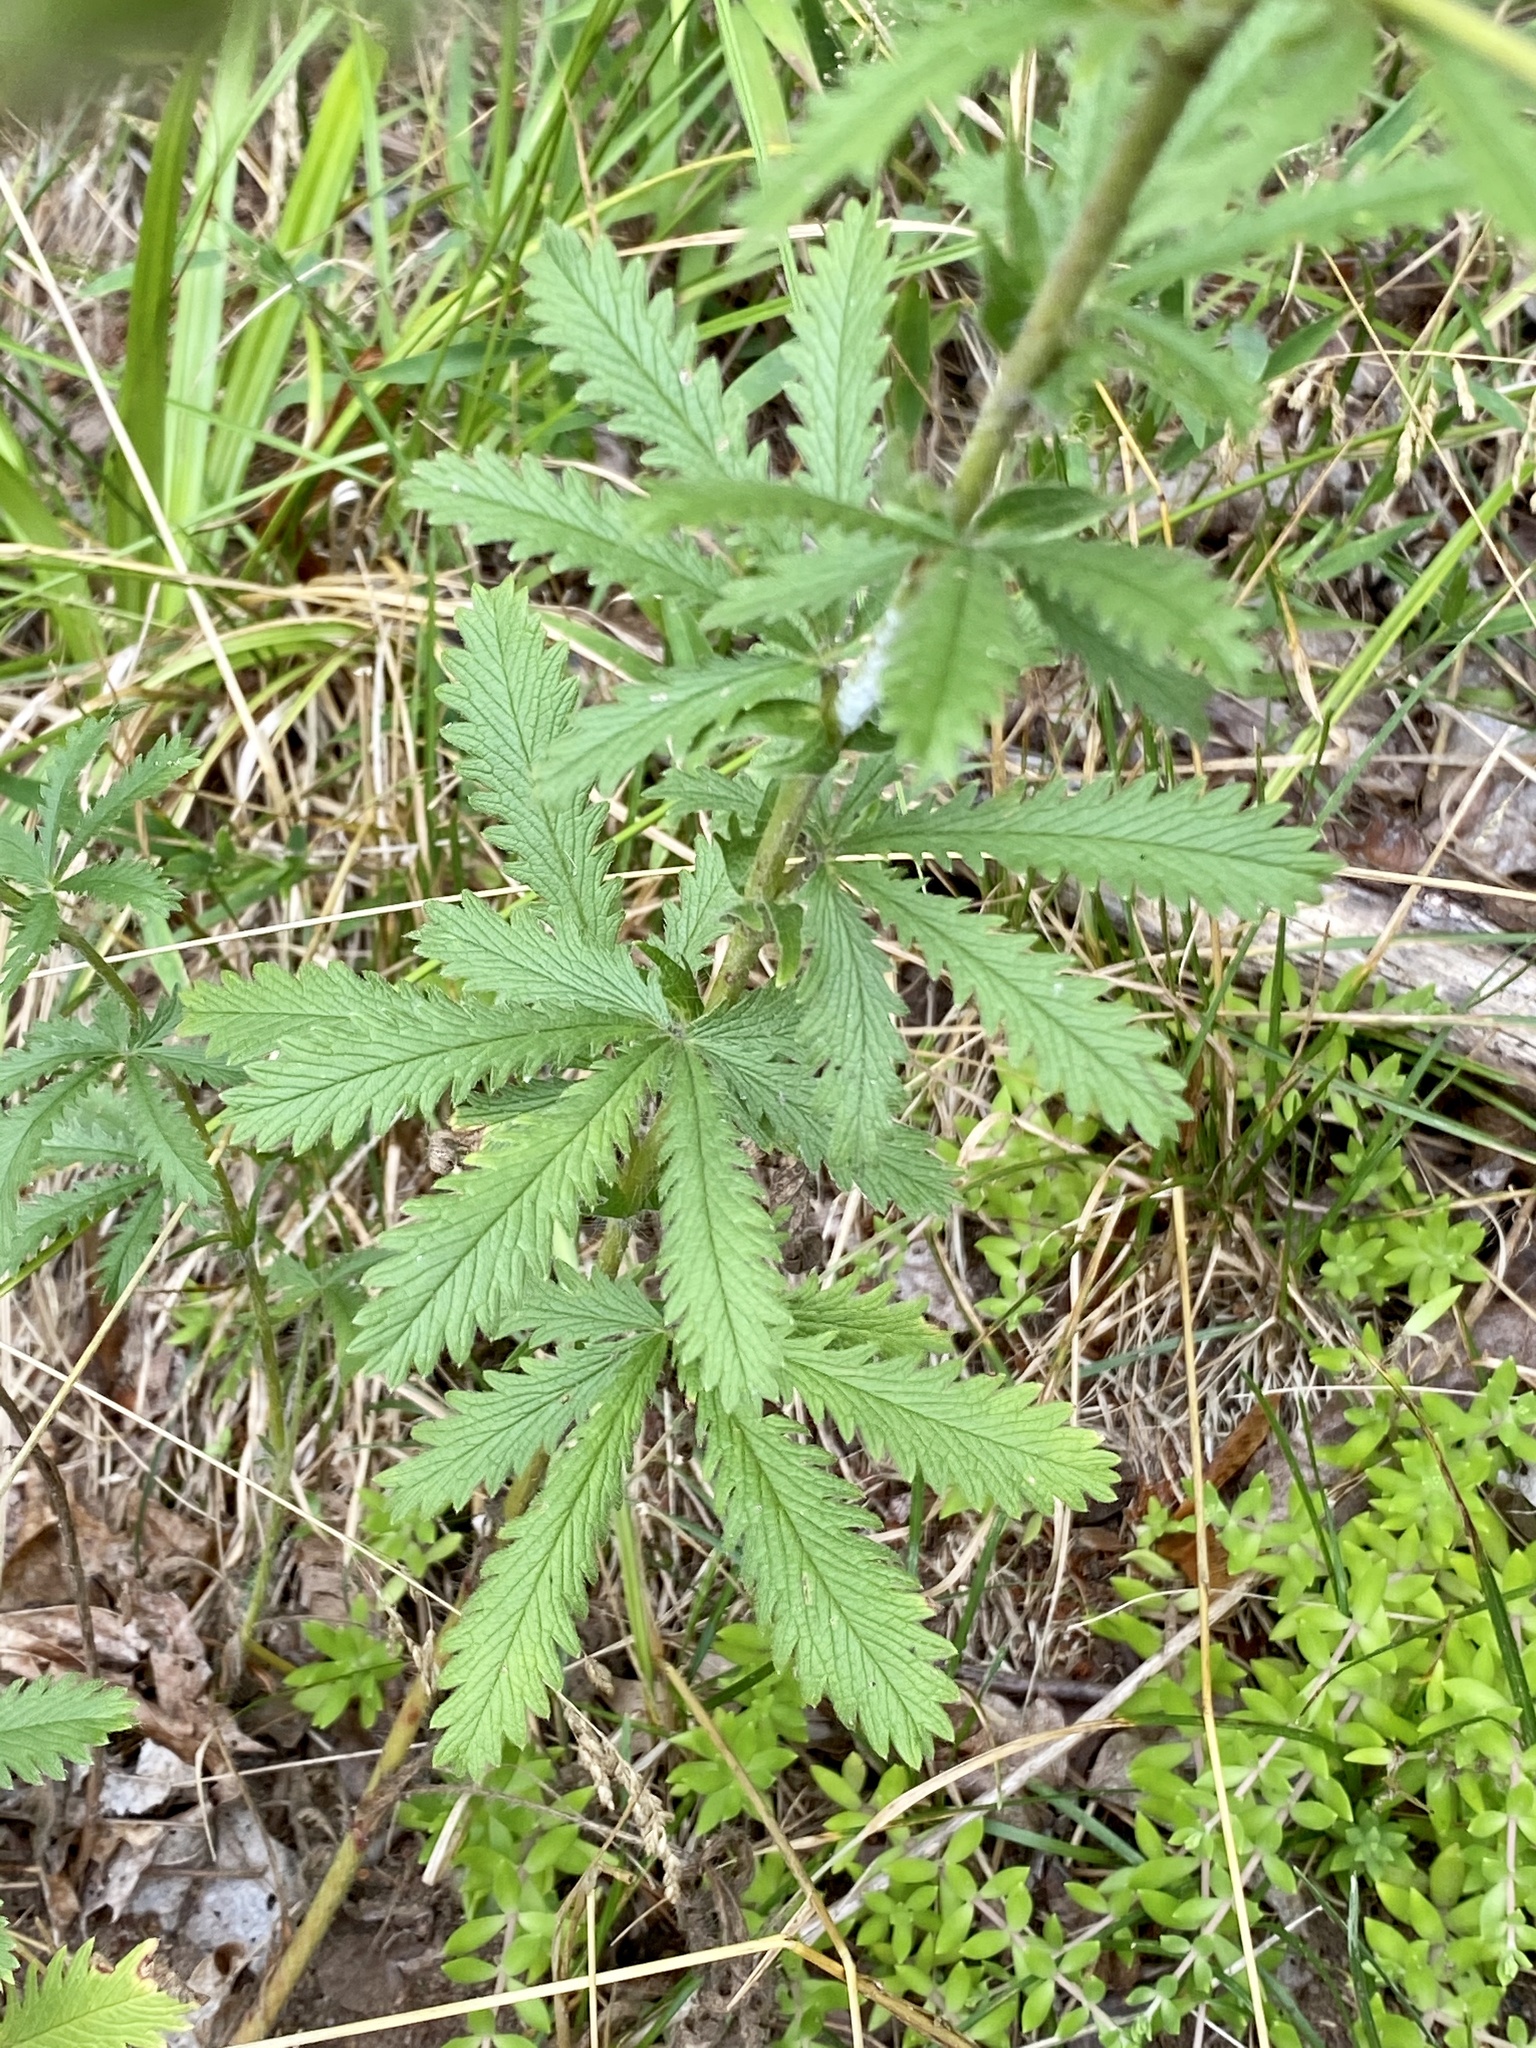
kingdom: Plantae
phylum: Tracheophyta
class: Magnoliopsida
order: Rosales
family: Rosaceae
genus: Potentilla
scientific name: Potentilla recta
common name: Sulphur cinquefoil
